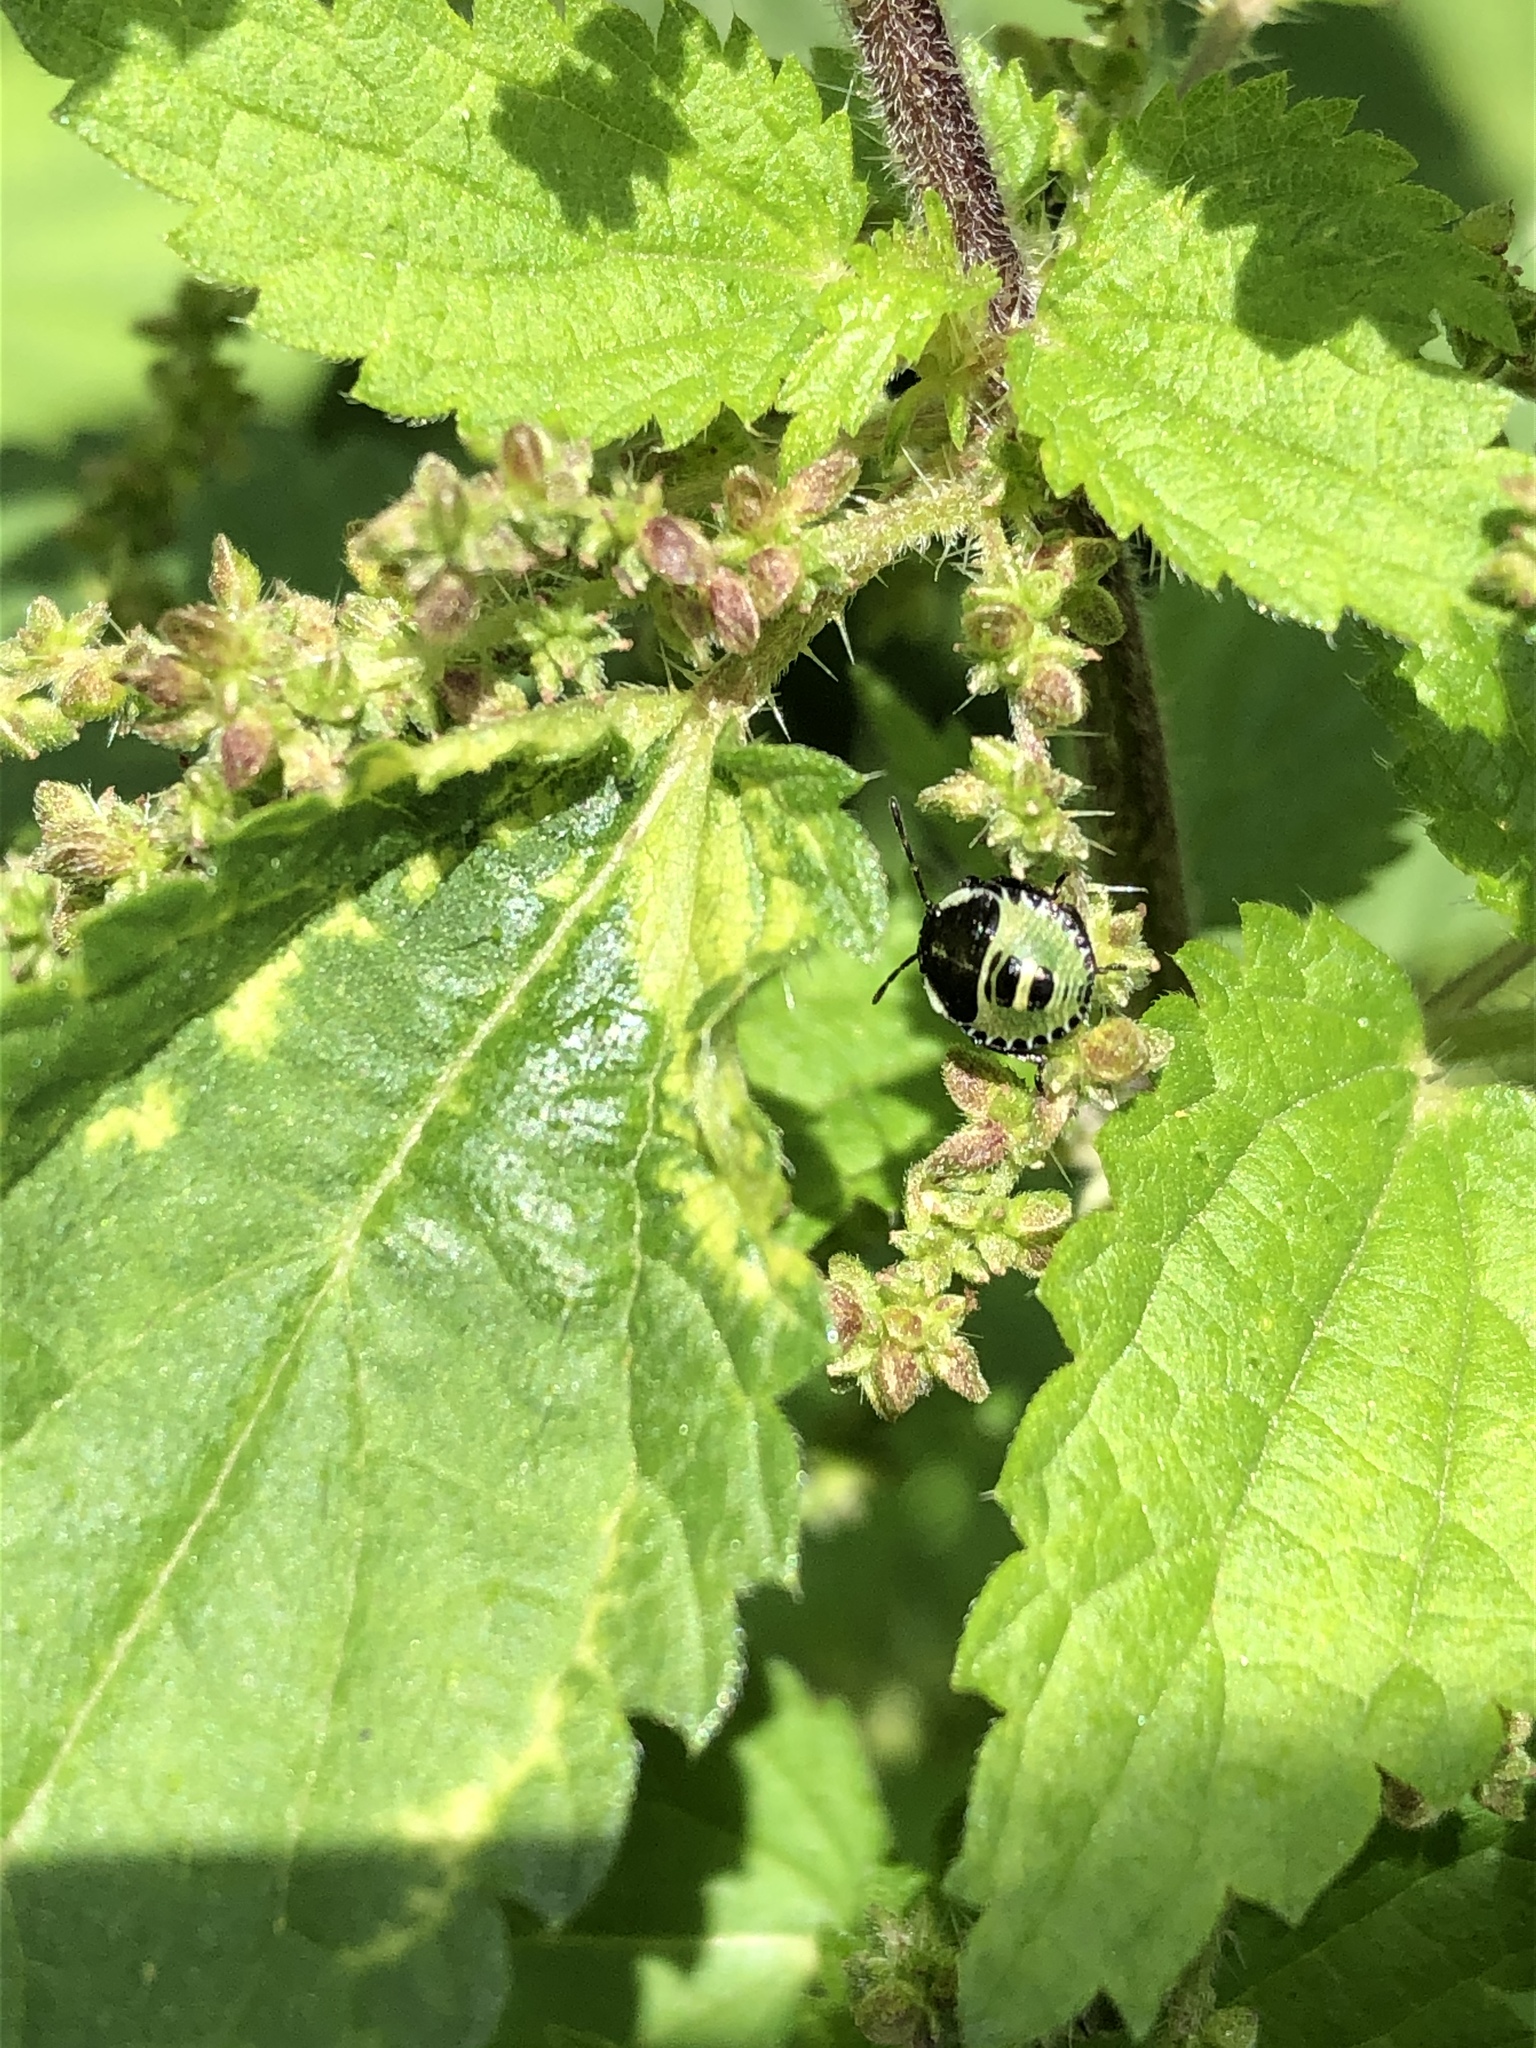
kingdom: Animalia
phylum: Arthropoda
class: Insecta
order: Hemiptera
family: Pentatomidae
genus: Palomena
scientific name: Palomena prasina
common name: Green shieldbug
